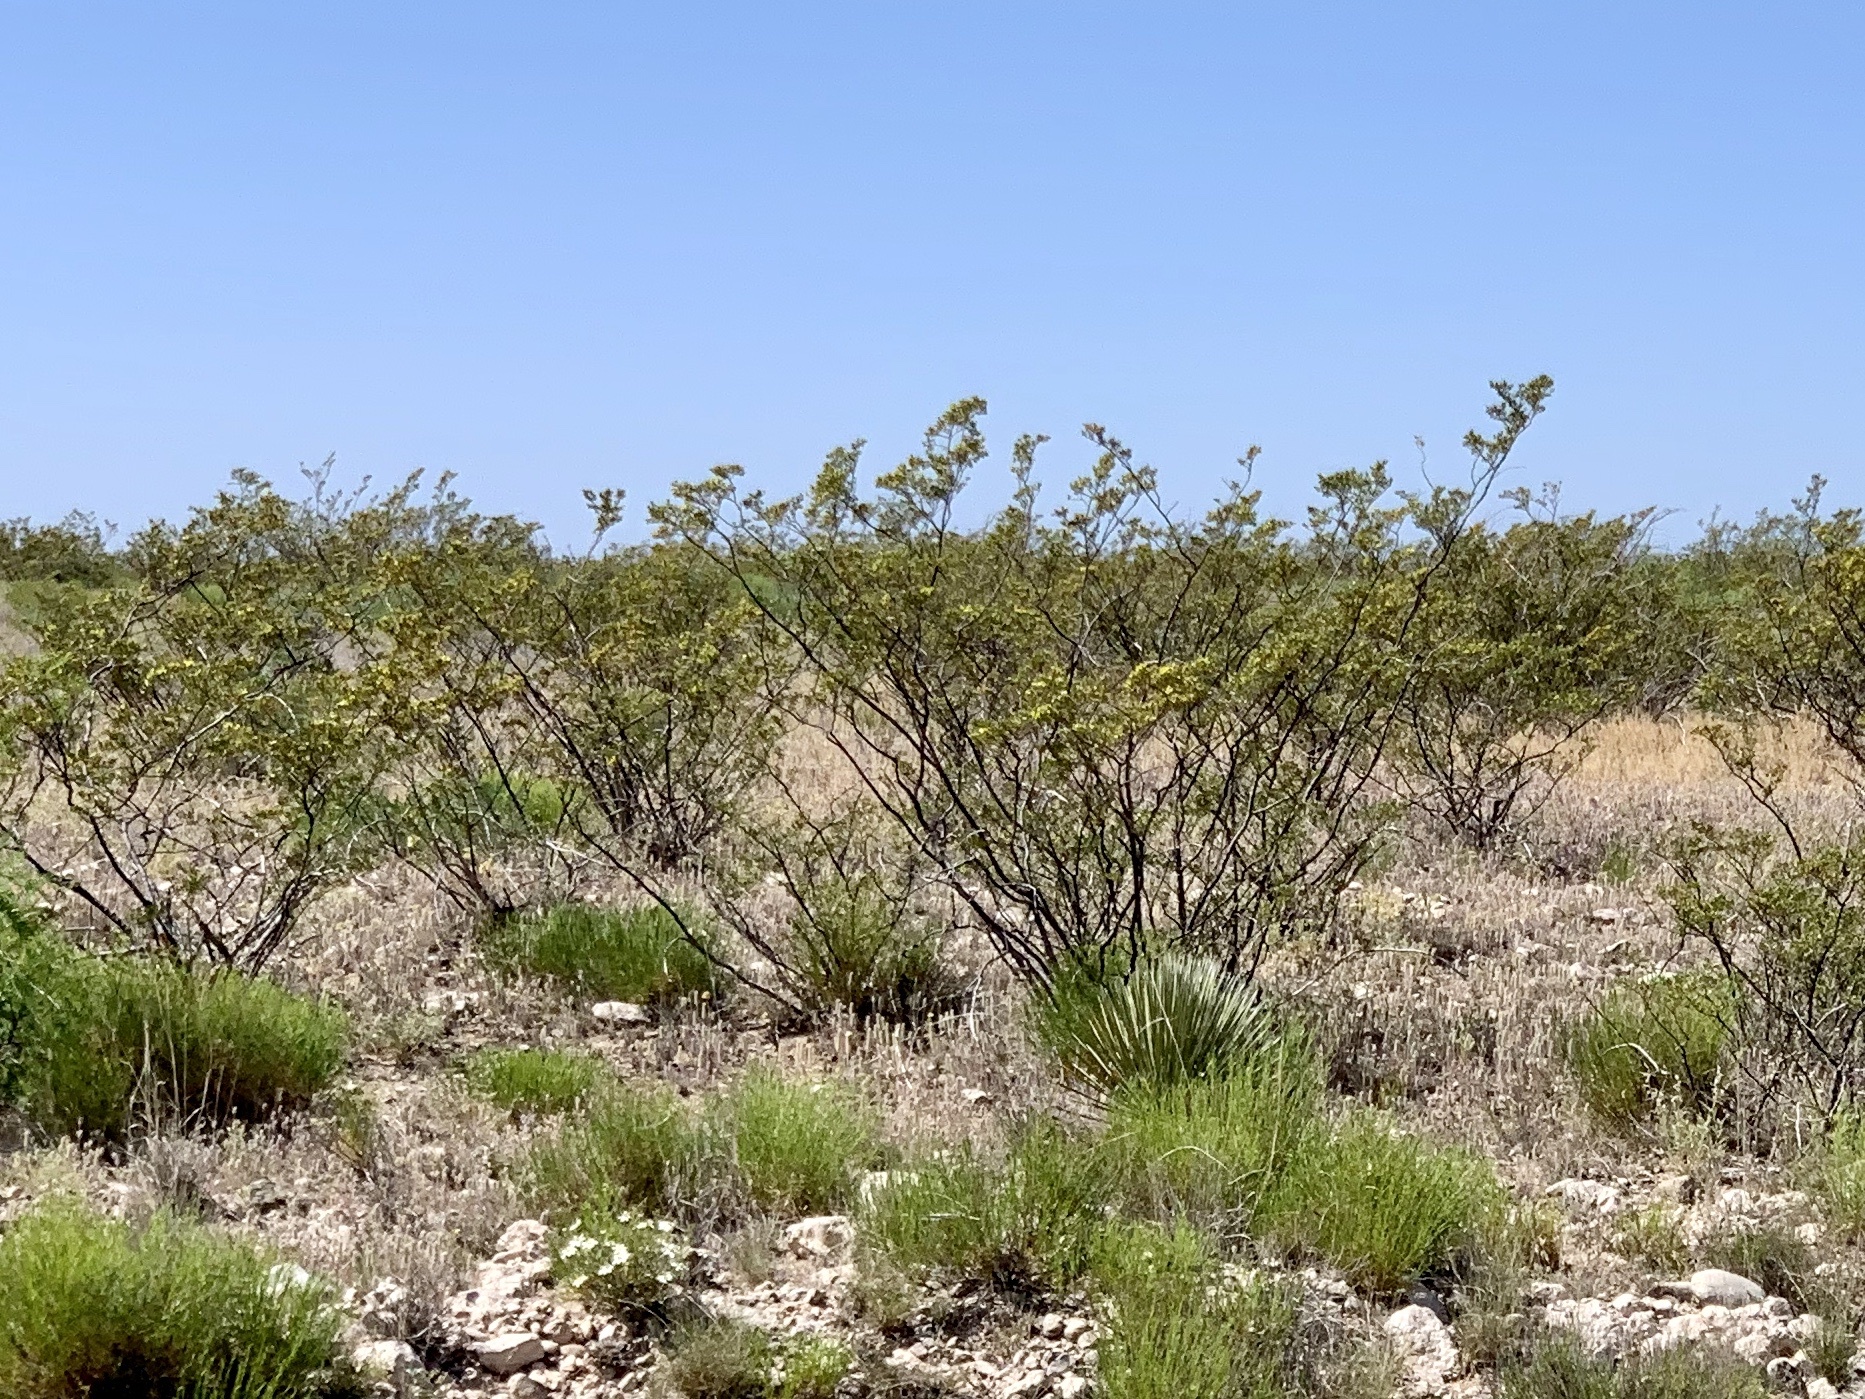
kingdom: Plantae
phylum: Tracheophyta
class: Magnoliopsida
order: Zygophyllales
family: Zygophyllaceae
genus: Larrea
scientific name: Larrea tridentata
